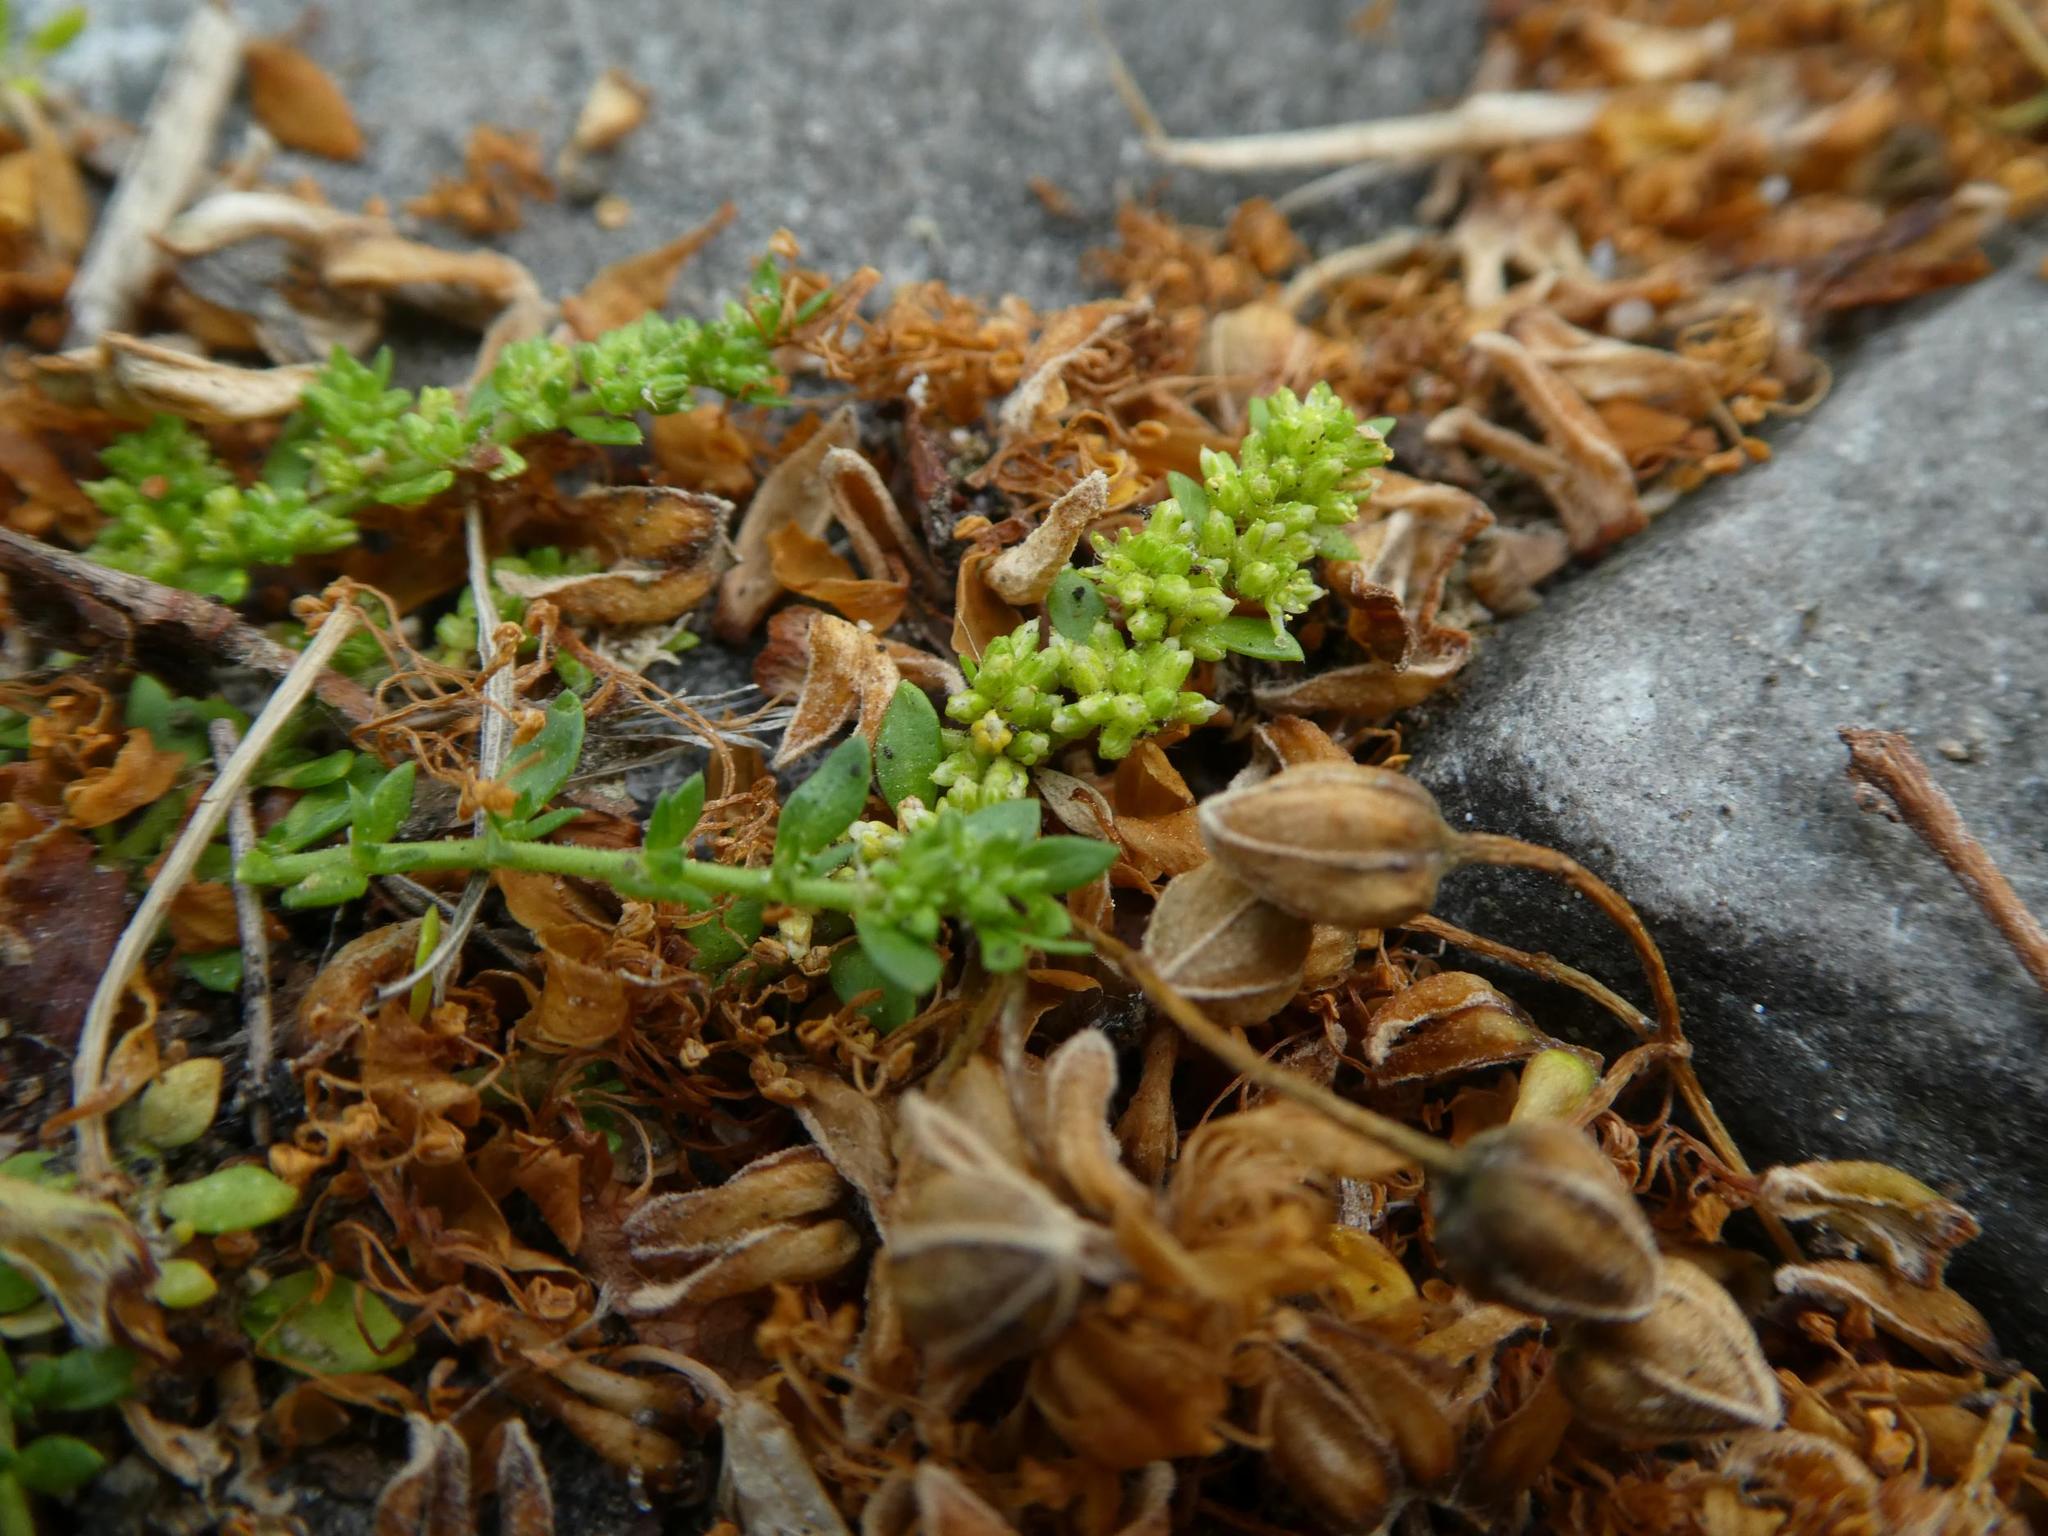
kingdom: Plantae
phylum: Tracheophyta
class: Magnoliopsida
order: Caryophyllales
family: Caryophyllaceae
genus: Herniaria
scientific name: Herniaria glabra
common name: Smooth rupturewort
